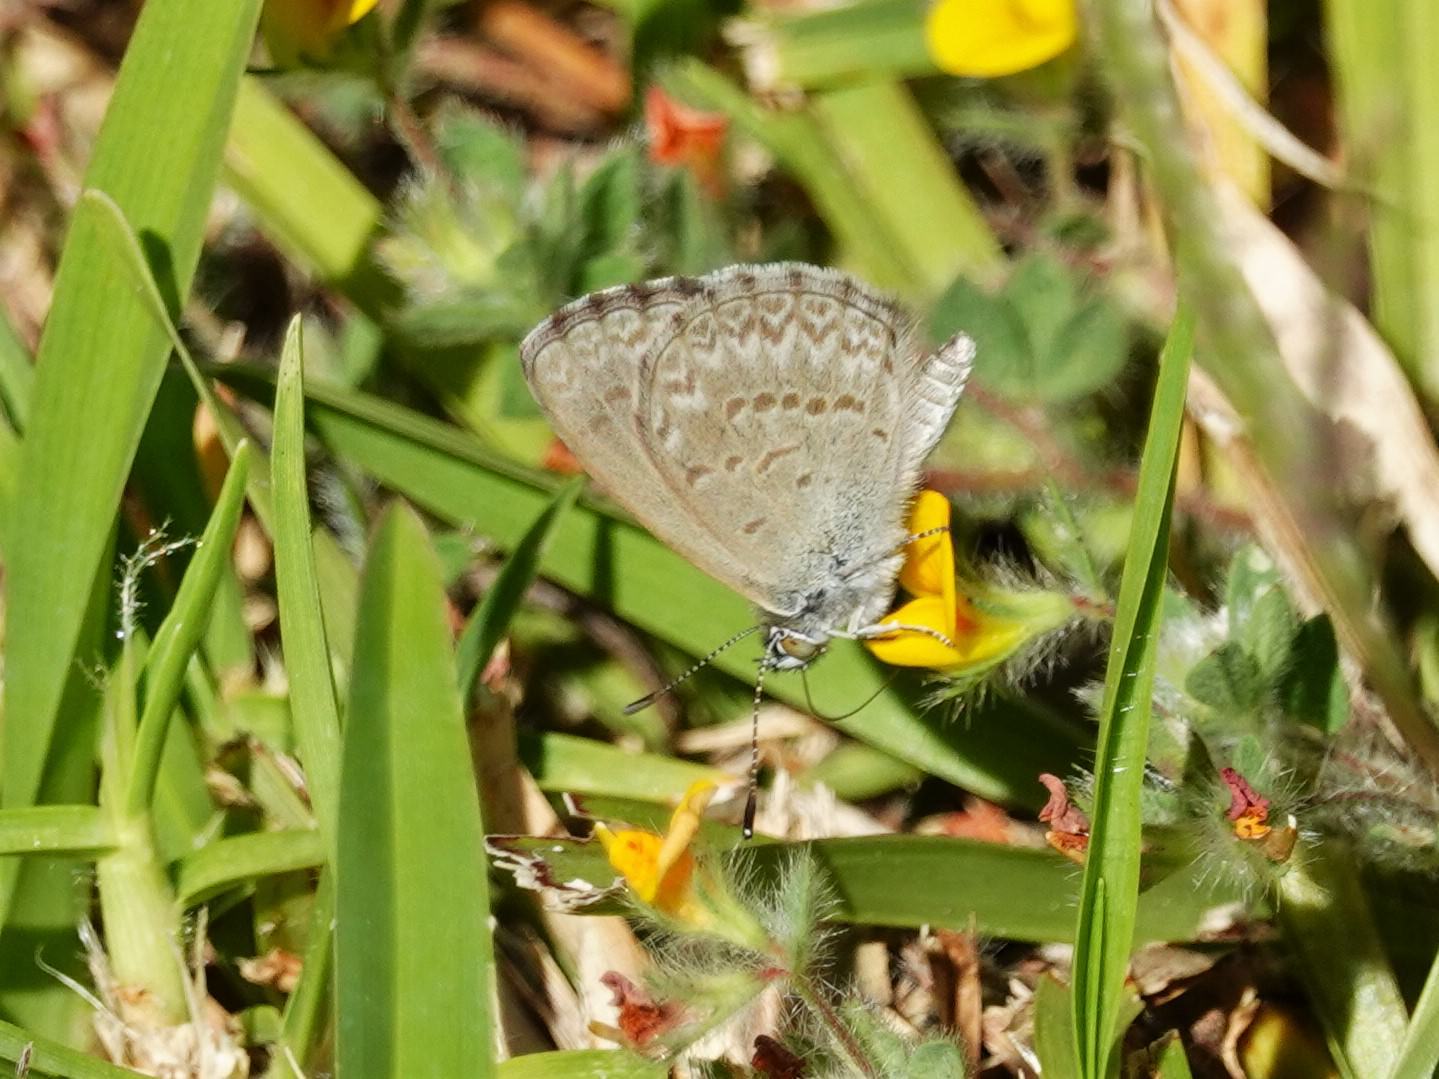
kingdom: Animalia
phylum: Arthropoda
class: Insecta
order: Lepidoptera
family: Lycaenidae
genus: Zizina
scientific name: Zizina labradus
